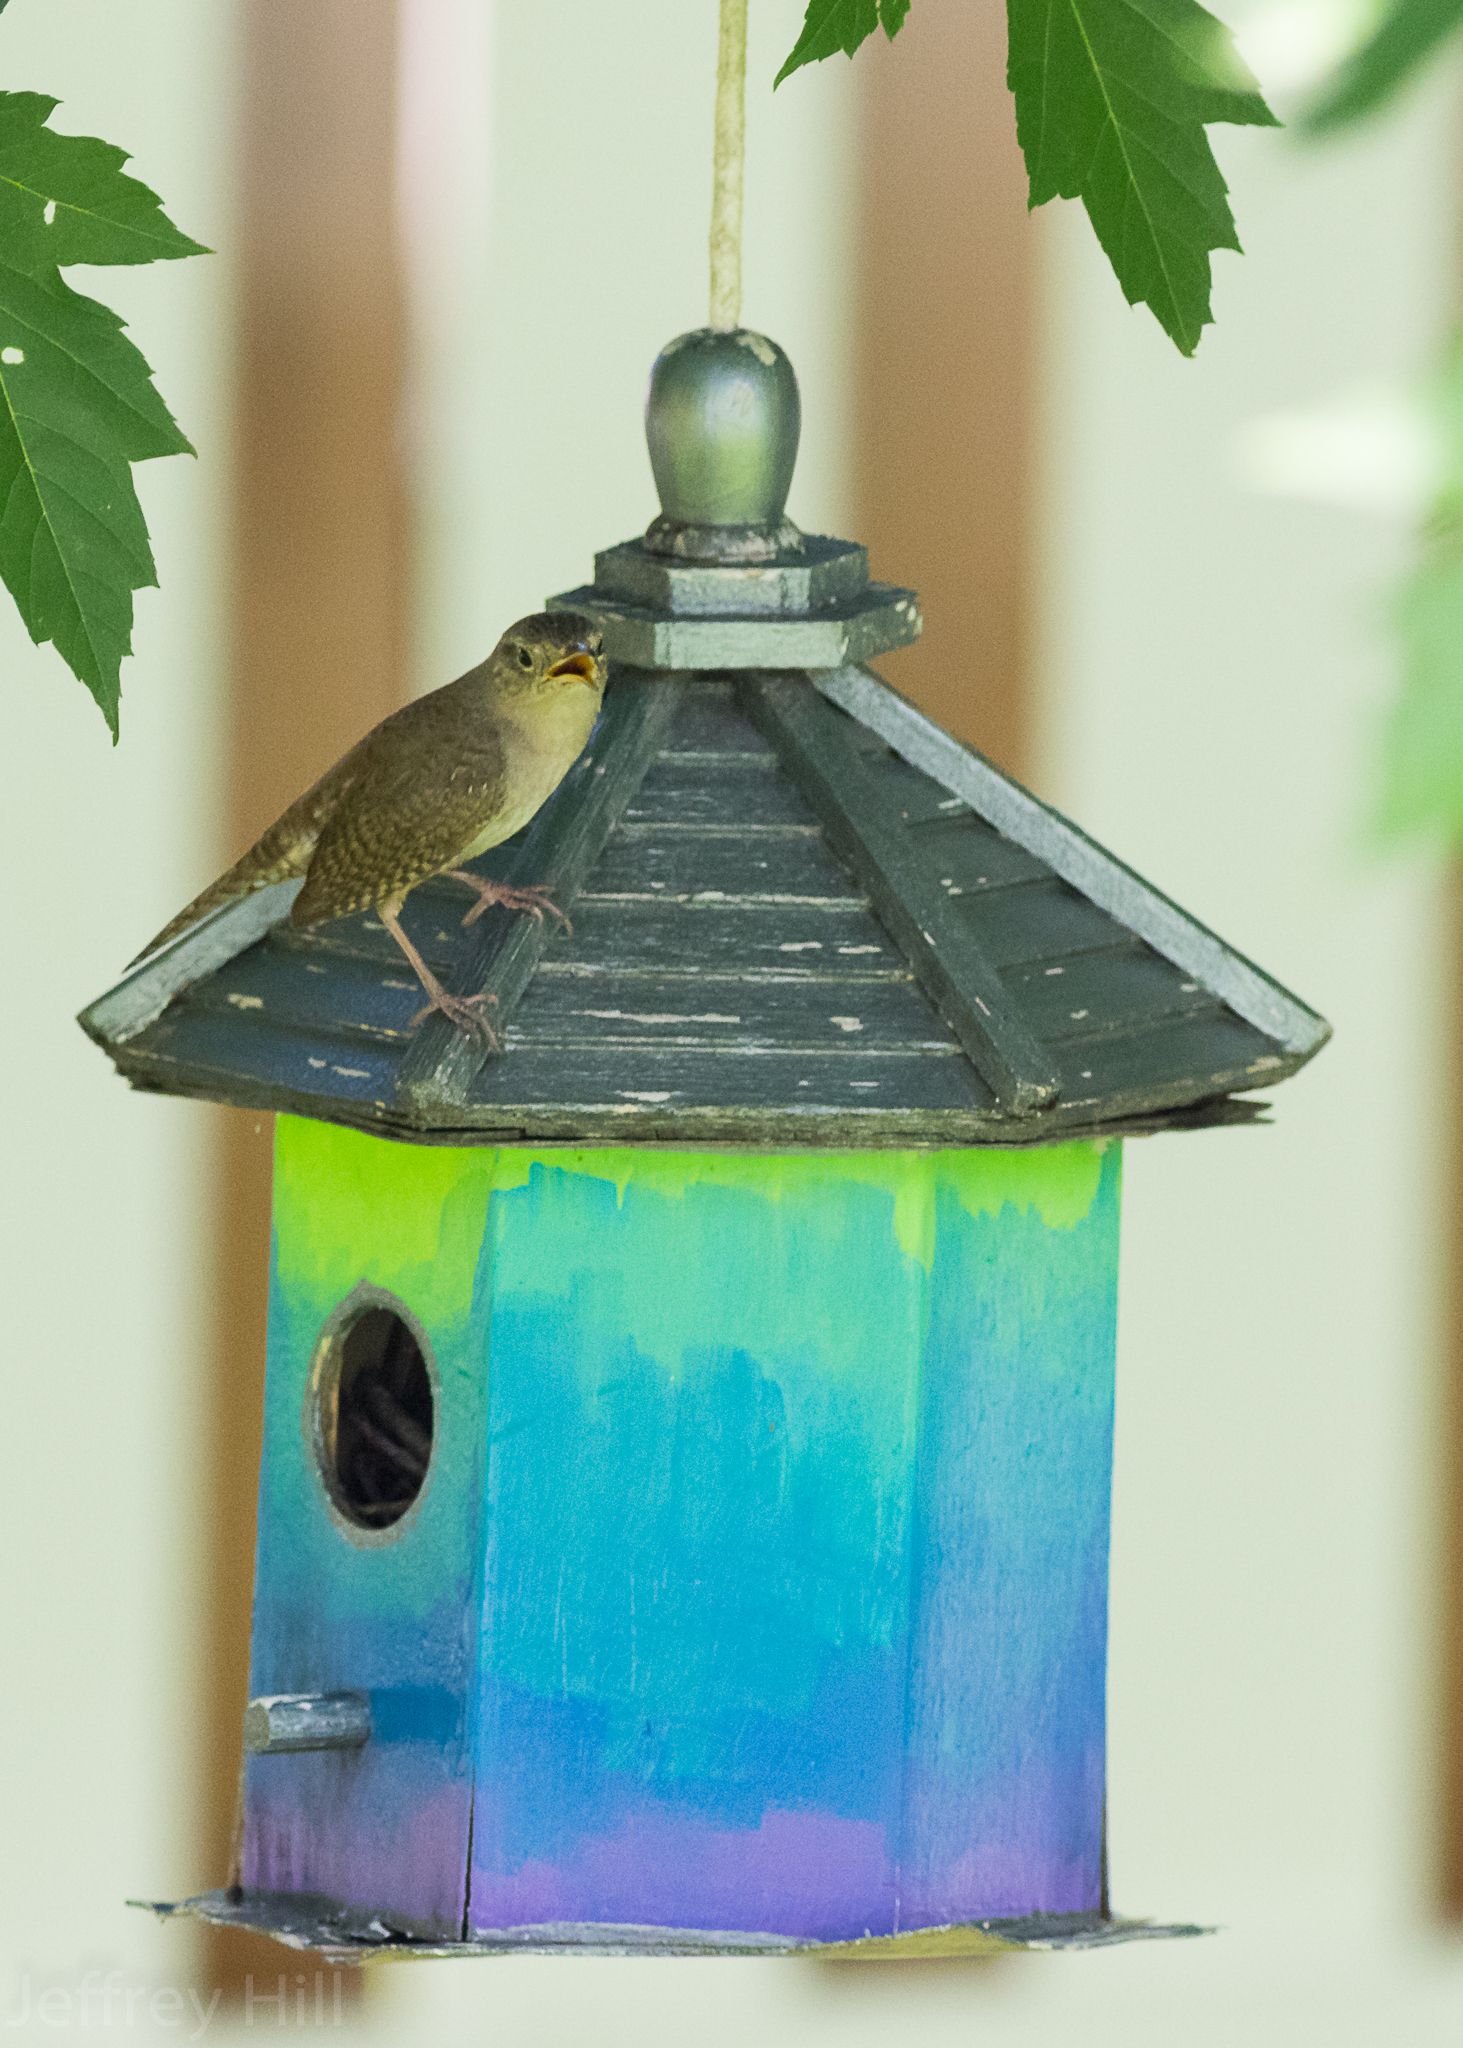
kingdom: Animalia
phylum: Chordata
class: Aves
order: Passeriformes
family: Troglodytidae
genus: Troglodytes
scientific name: Troglodytes aedon
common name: House wren
